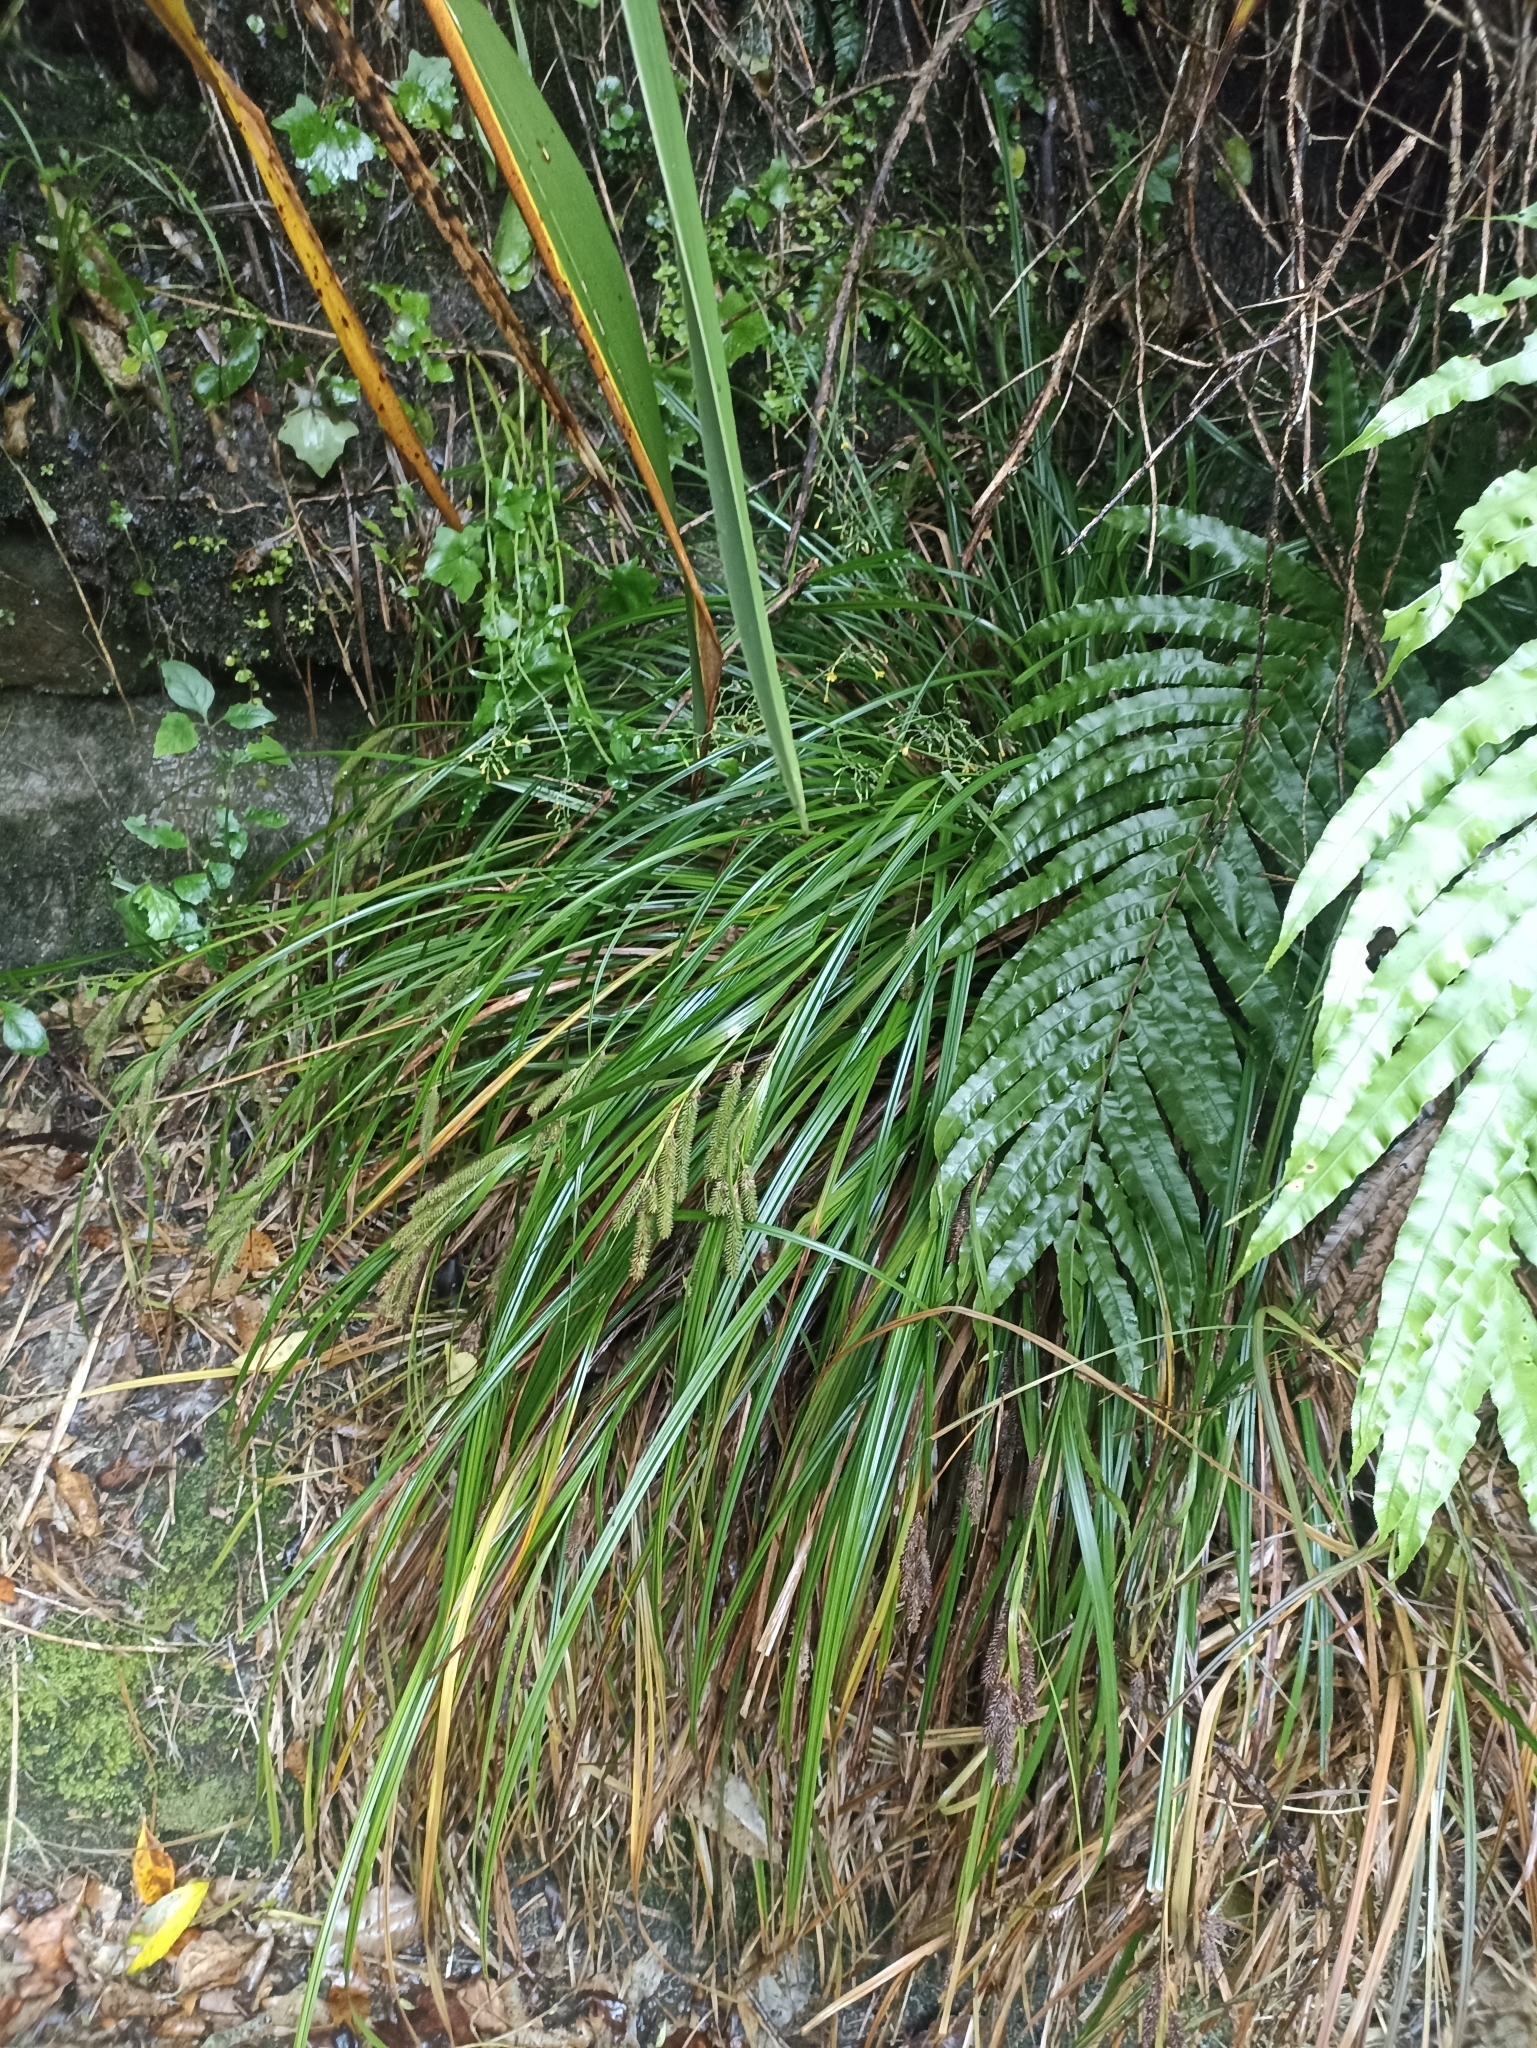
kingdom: Plantae
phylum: Tracheophyta
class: Liliopsida
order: Poales
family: Cyperaceae
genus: Carex
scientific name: Carex forsteri
